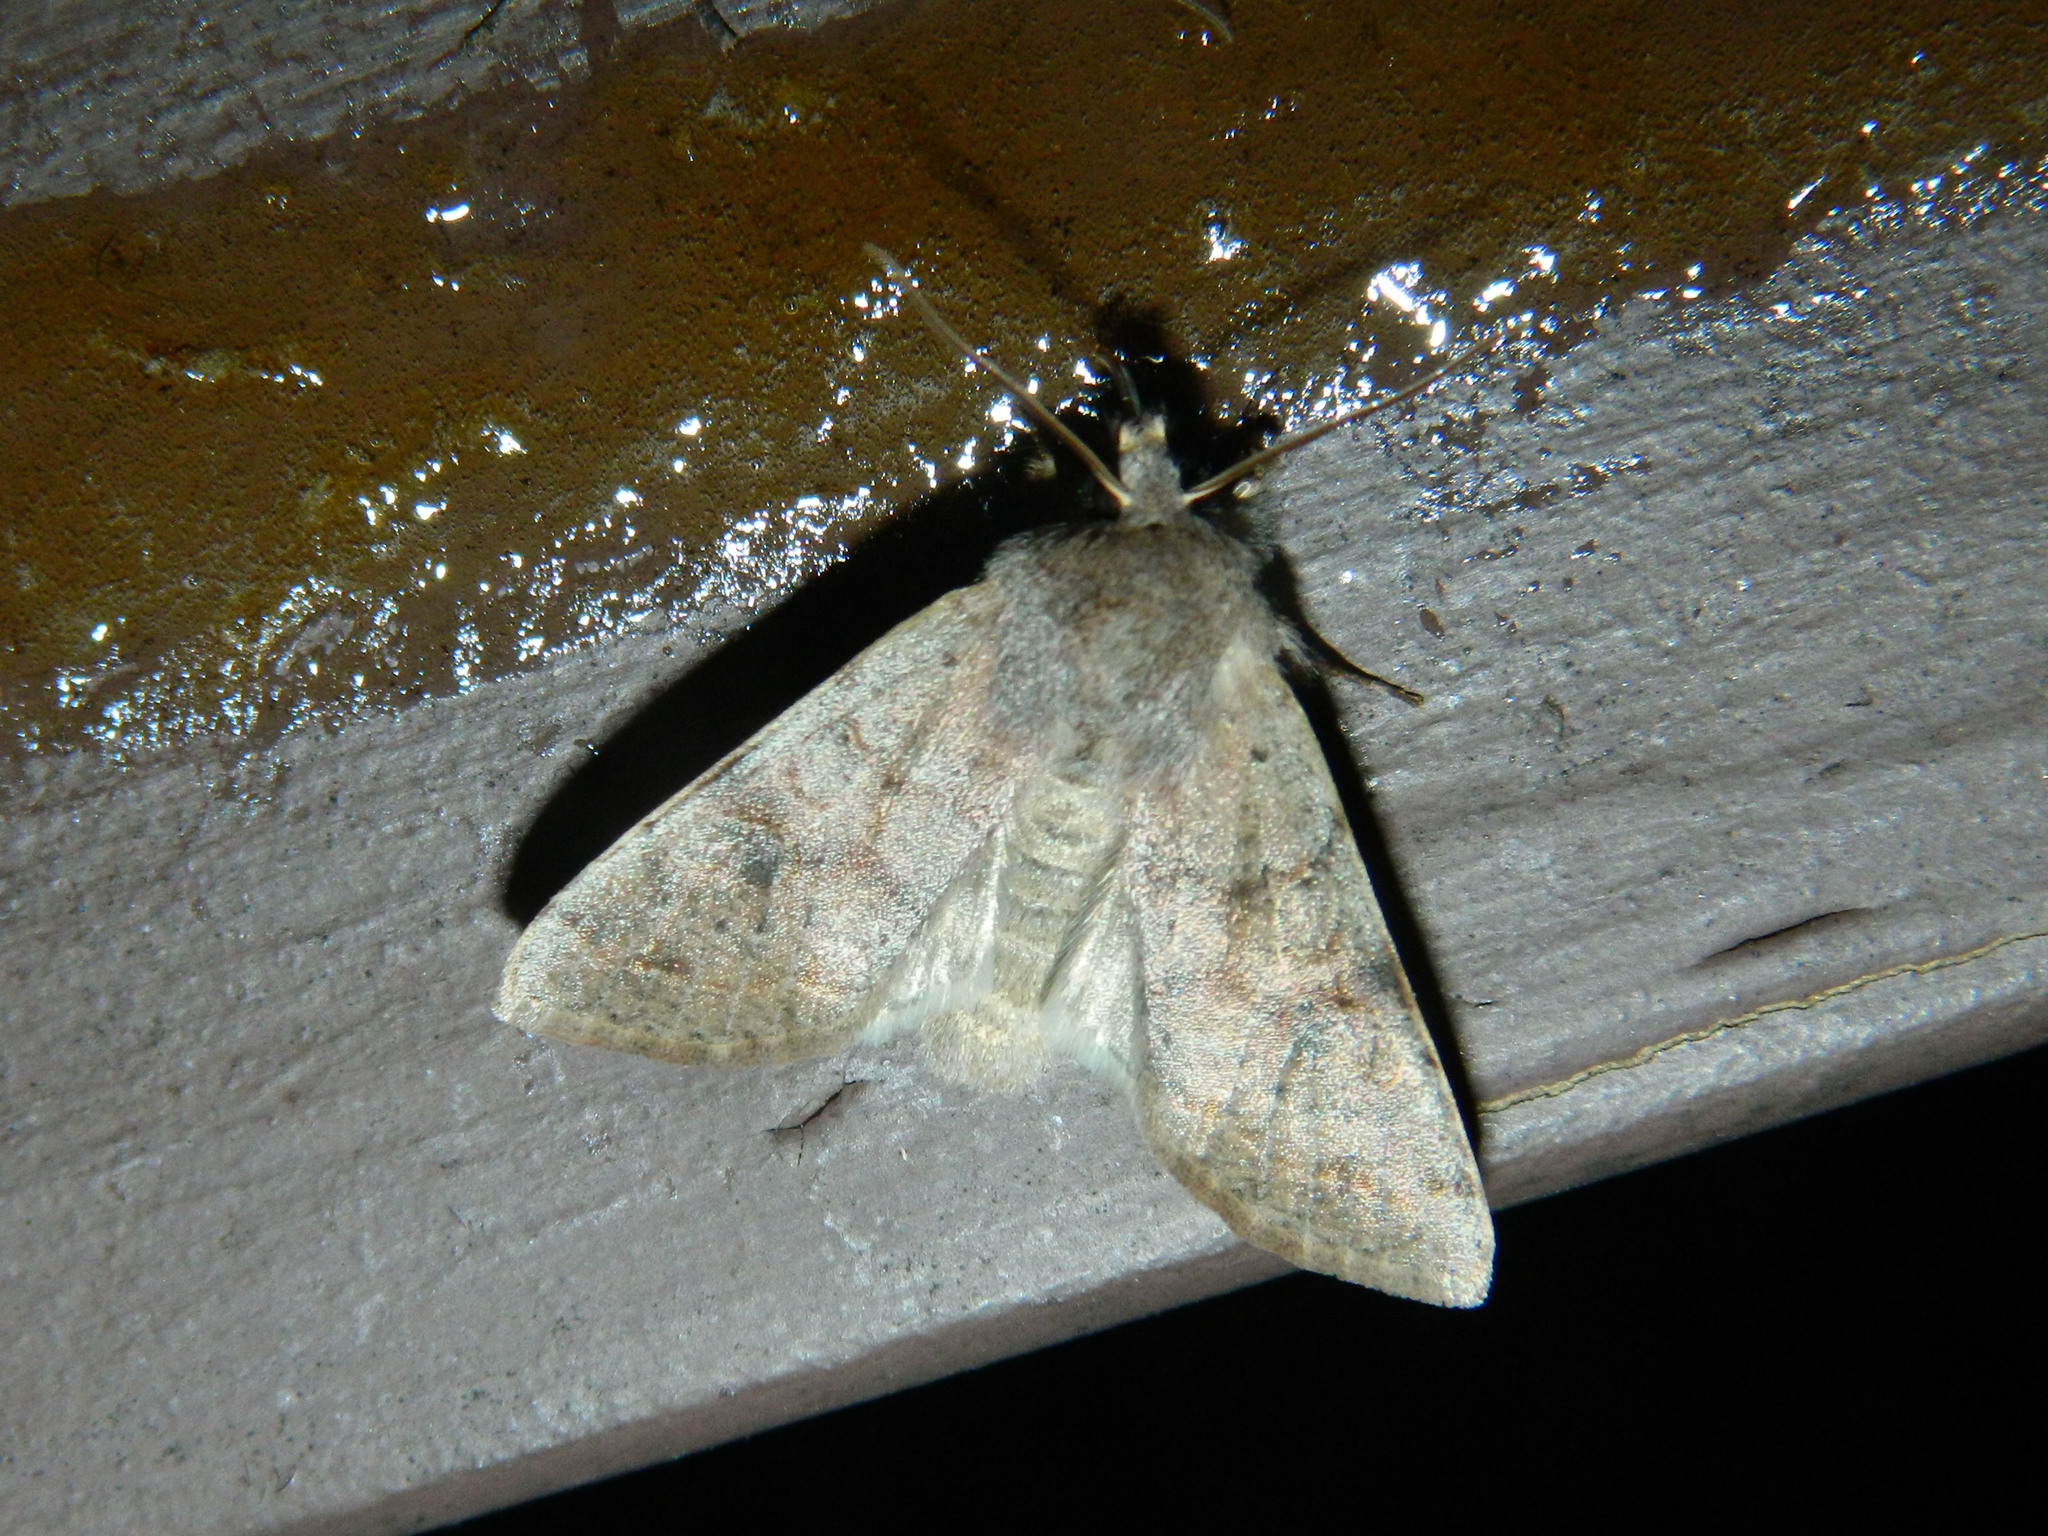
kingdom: Animalia
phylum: Arthropoda
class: Insecta
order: Lepidoptera
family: Noctuidae
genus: Orthosia
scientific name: Orthosia hibisci
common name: Green fruitworm
